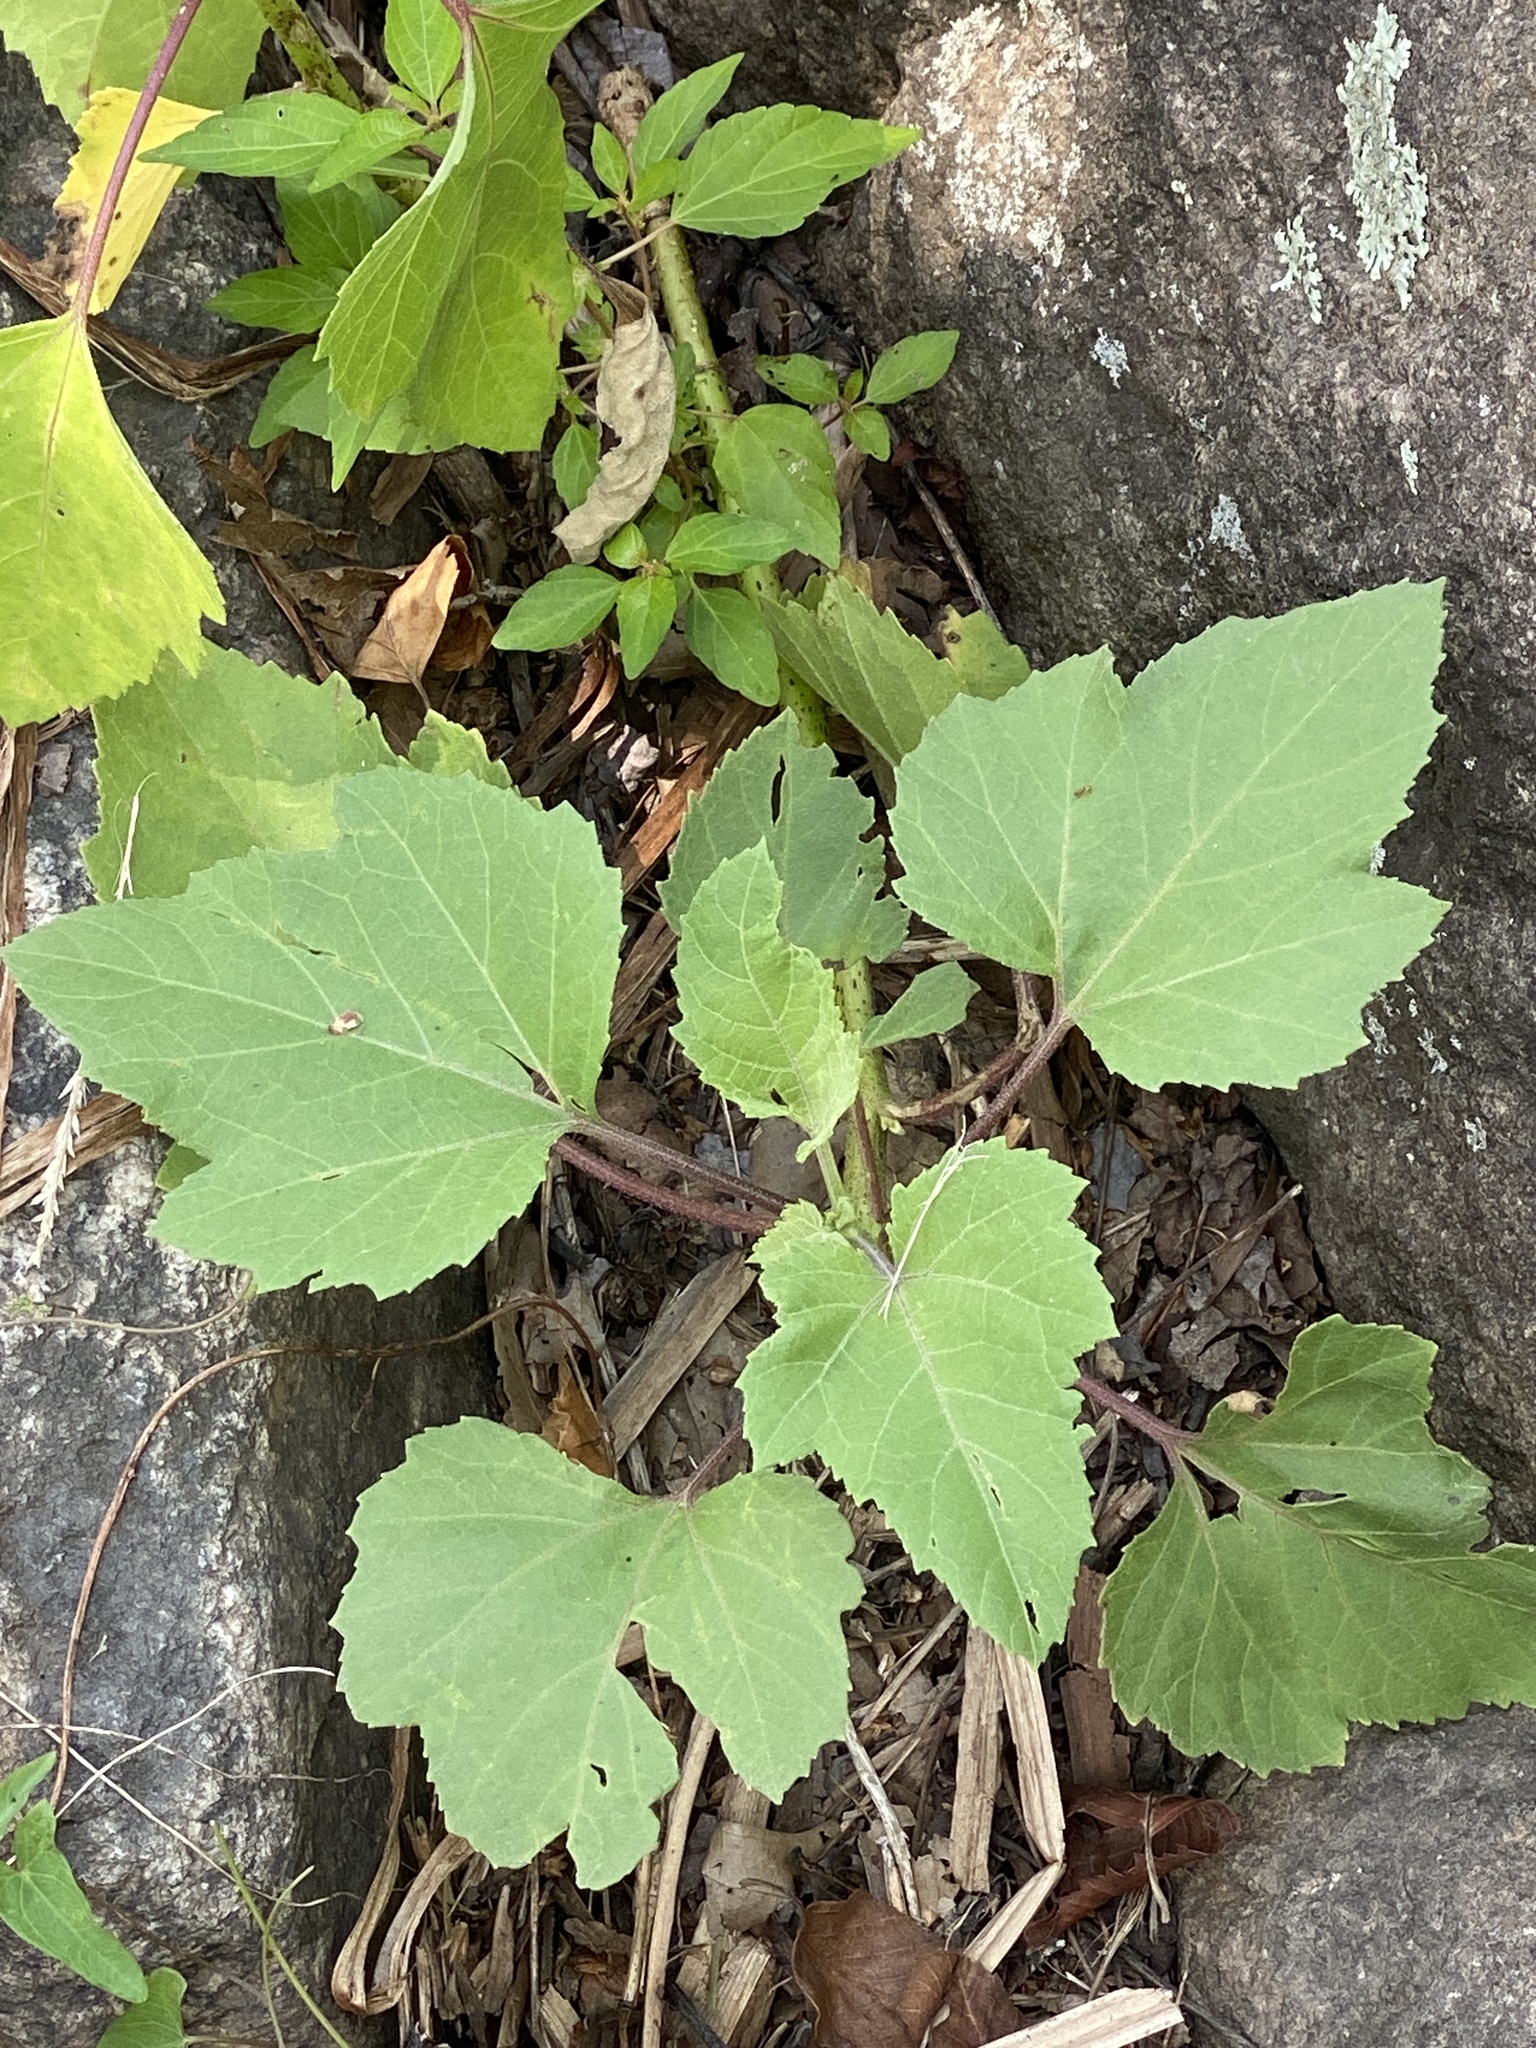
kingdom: Plantae
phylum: Tracheophyta
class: Magnoliopsida
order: Asterales
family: Asteraceae
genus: Xanthium
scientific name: Xanthium strumarium
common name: Rough cocklebur
